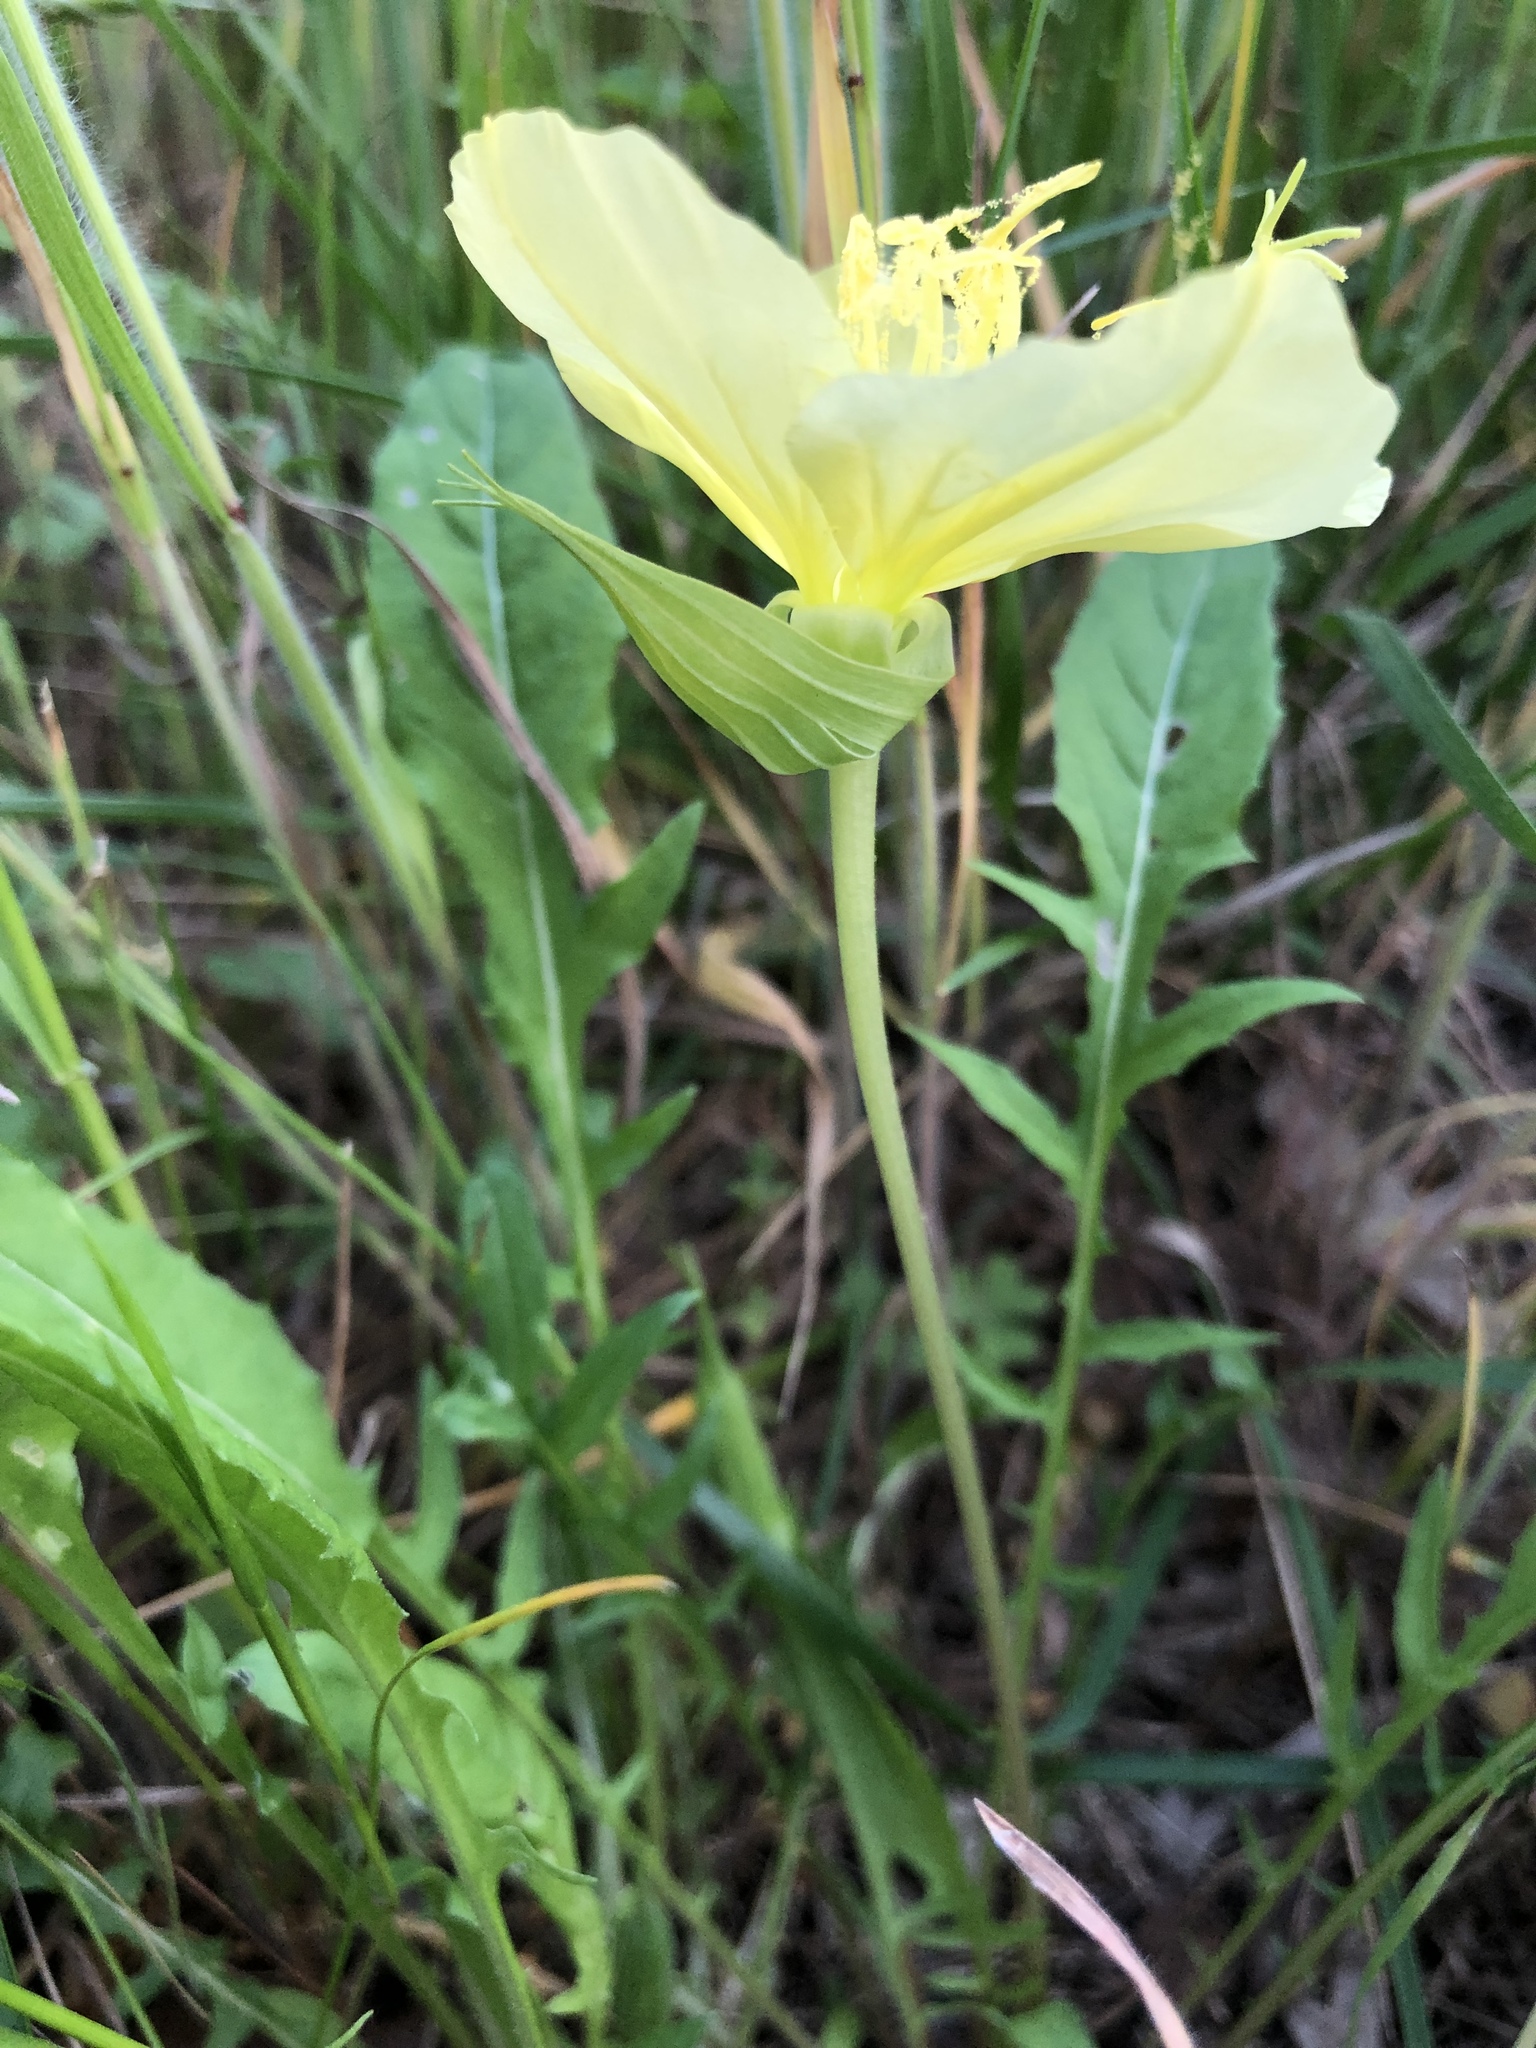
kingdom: Plantae
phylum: Tracheophyta
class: Magnoliopsida
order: Myrtales
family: Onagraceae
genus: Oenothera
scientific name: Oenothera triloba
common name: Sessile evening-primrose
